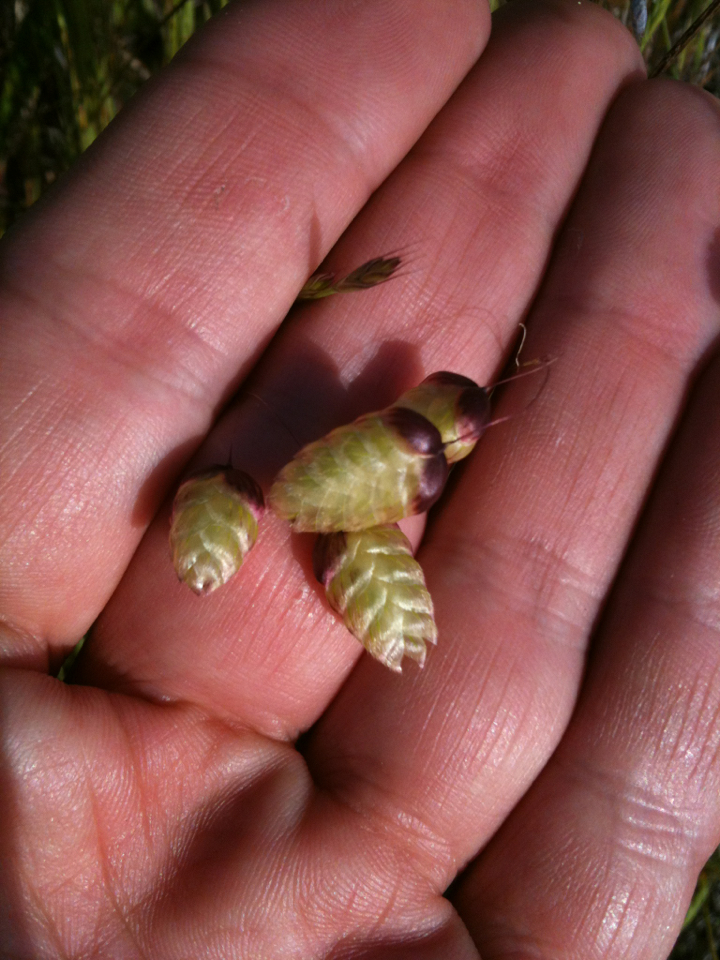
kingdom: Plantae
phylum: Tracheophyta
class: Liliopsida
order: Poales
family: Poaceae
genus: Briza
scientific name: Briza maxima
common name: Big quakinggrass
